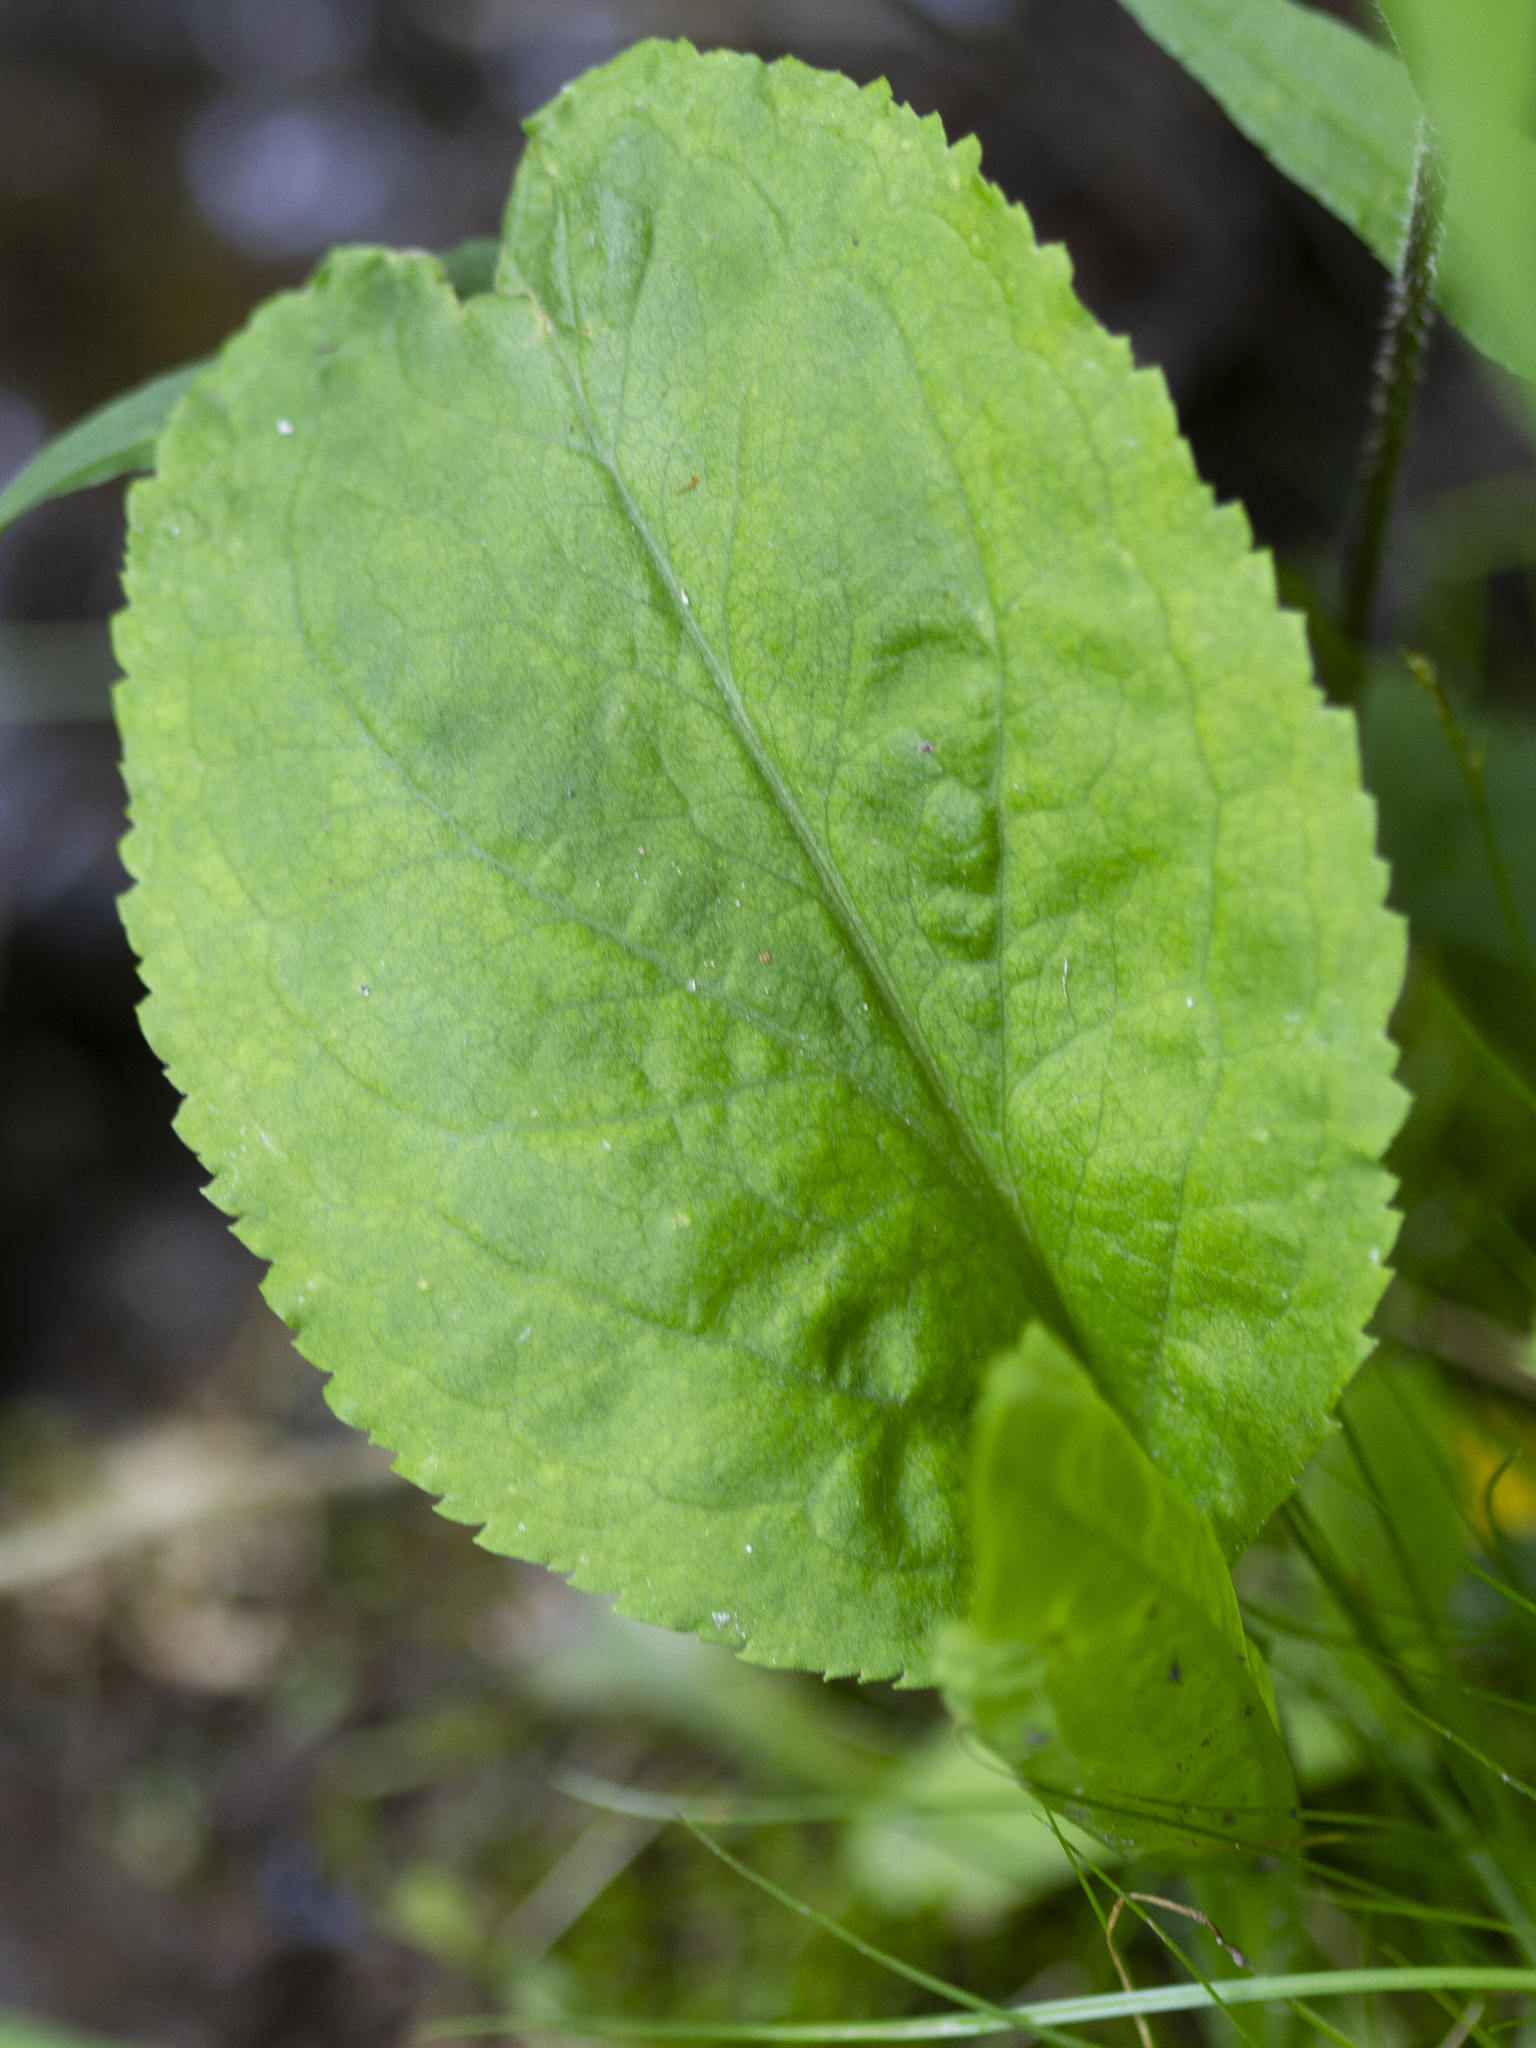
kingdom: Plantae
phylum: Tracheophyta
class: Magnoliopsida
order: Asterales
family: Asteraceae
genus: Solidago
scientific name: Solidago patula
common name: Rough-leaf goldenrod
